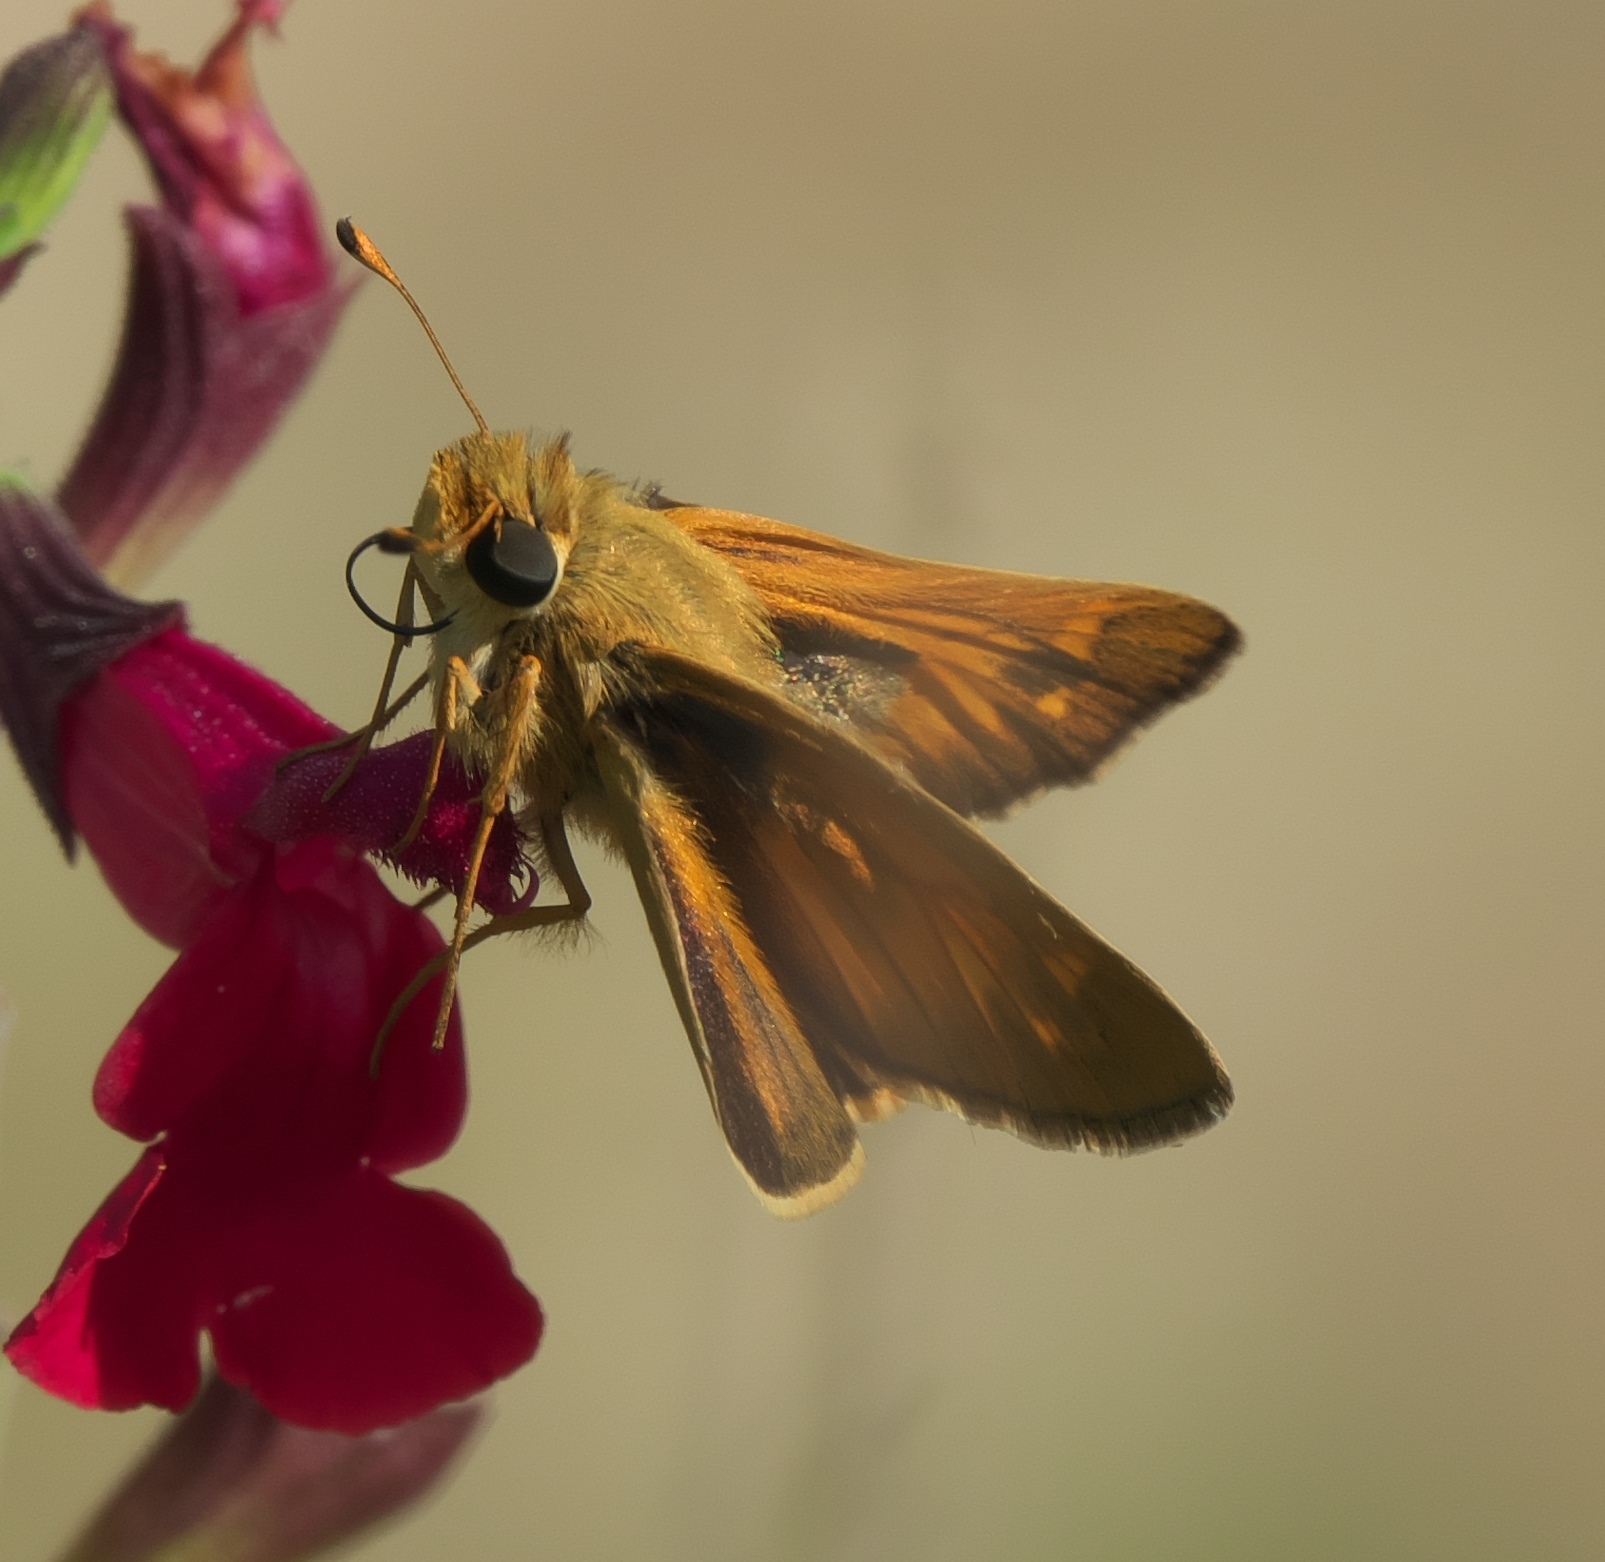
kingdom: Animalia
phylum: Arthropoda
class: Insecta
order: Lepidoptera
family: Hesperiidae
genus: Atalopedes
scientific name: Atalopedes
